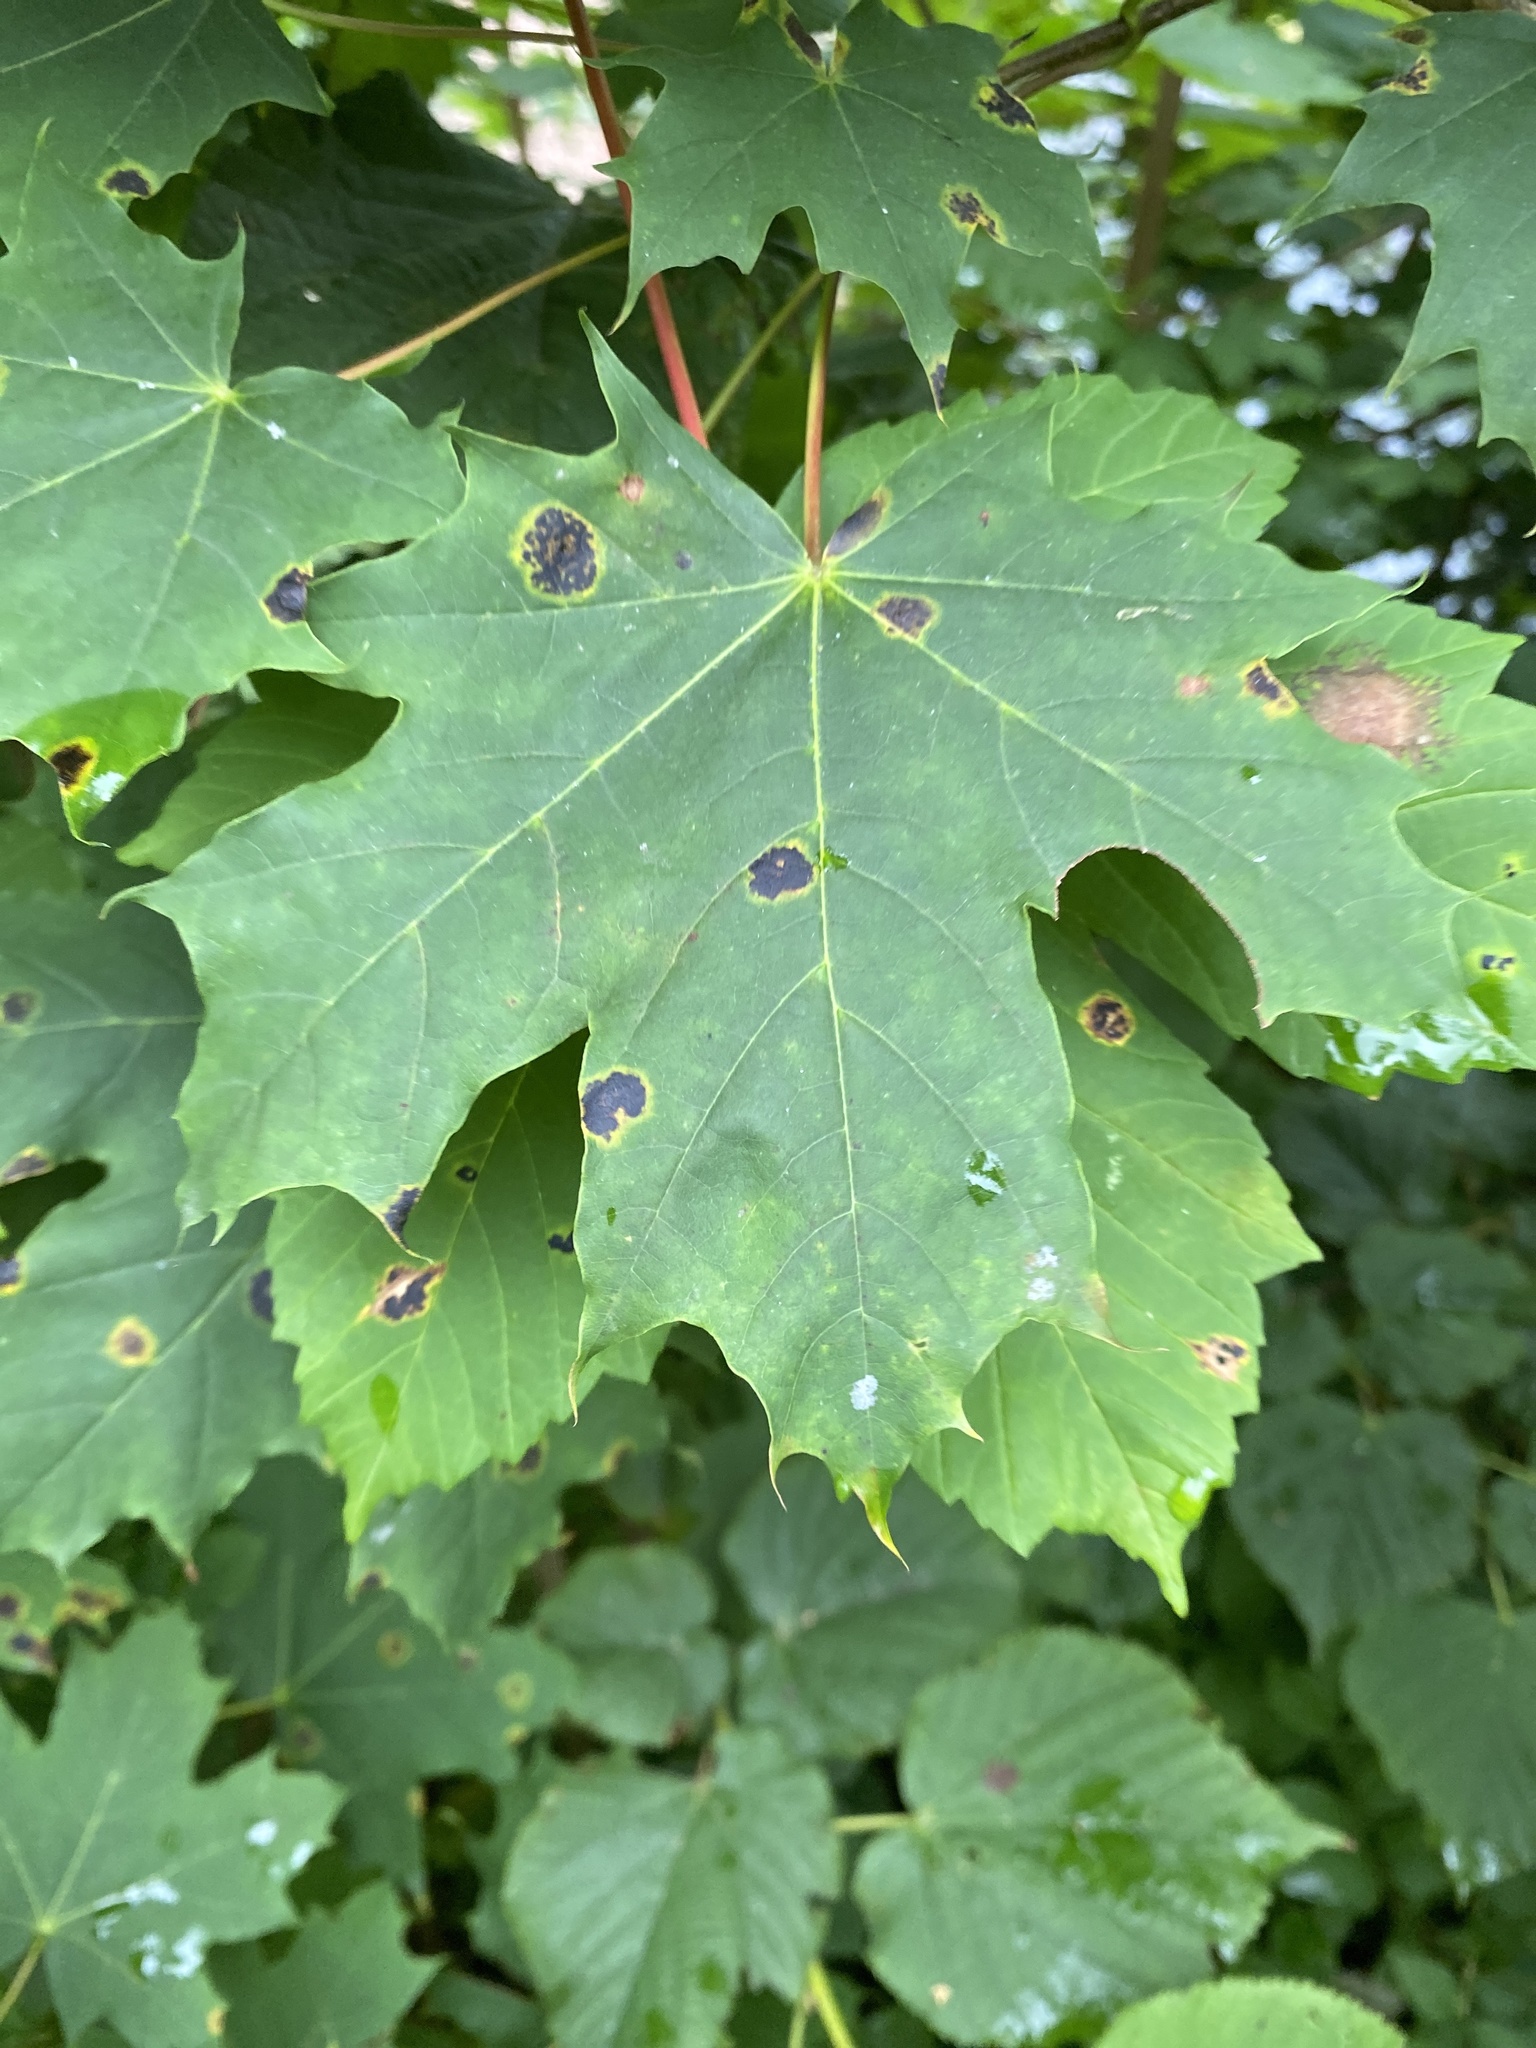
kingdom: Fungi
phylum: Ascomycota
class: Leotiomycetes
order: Rhytismatales
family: Rhytismataceae
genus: Rhytisma
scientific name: Rhytisma acerinum
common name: European tar spot
